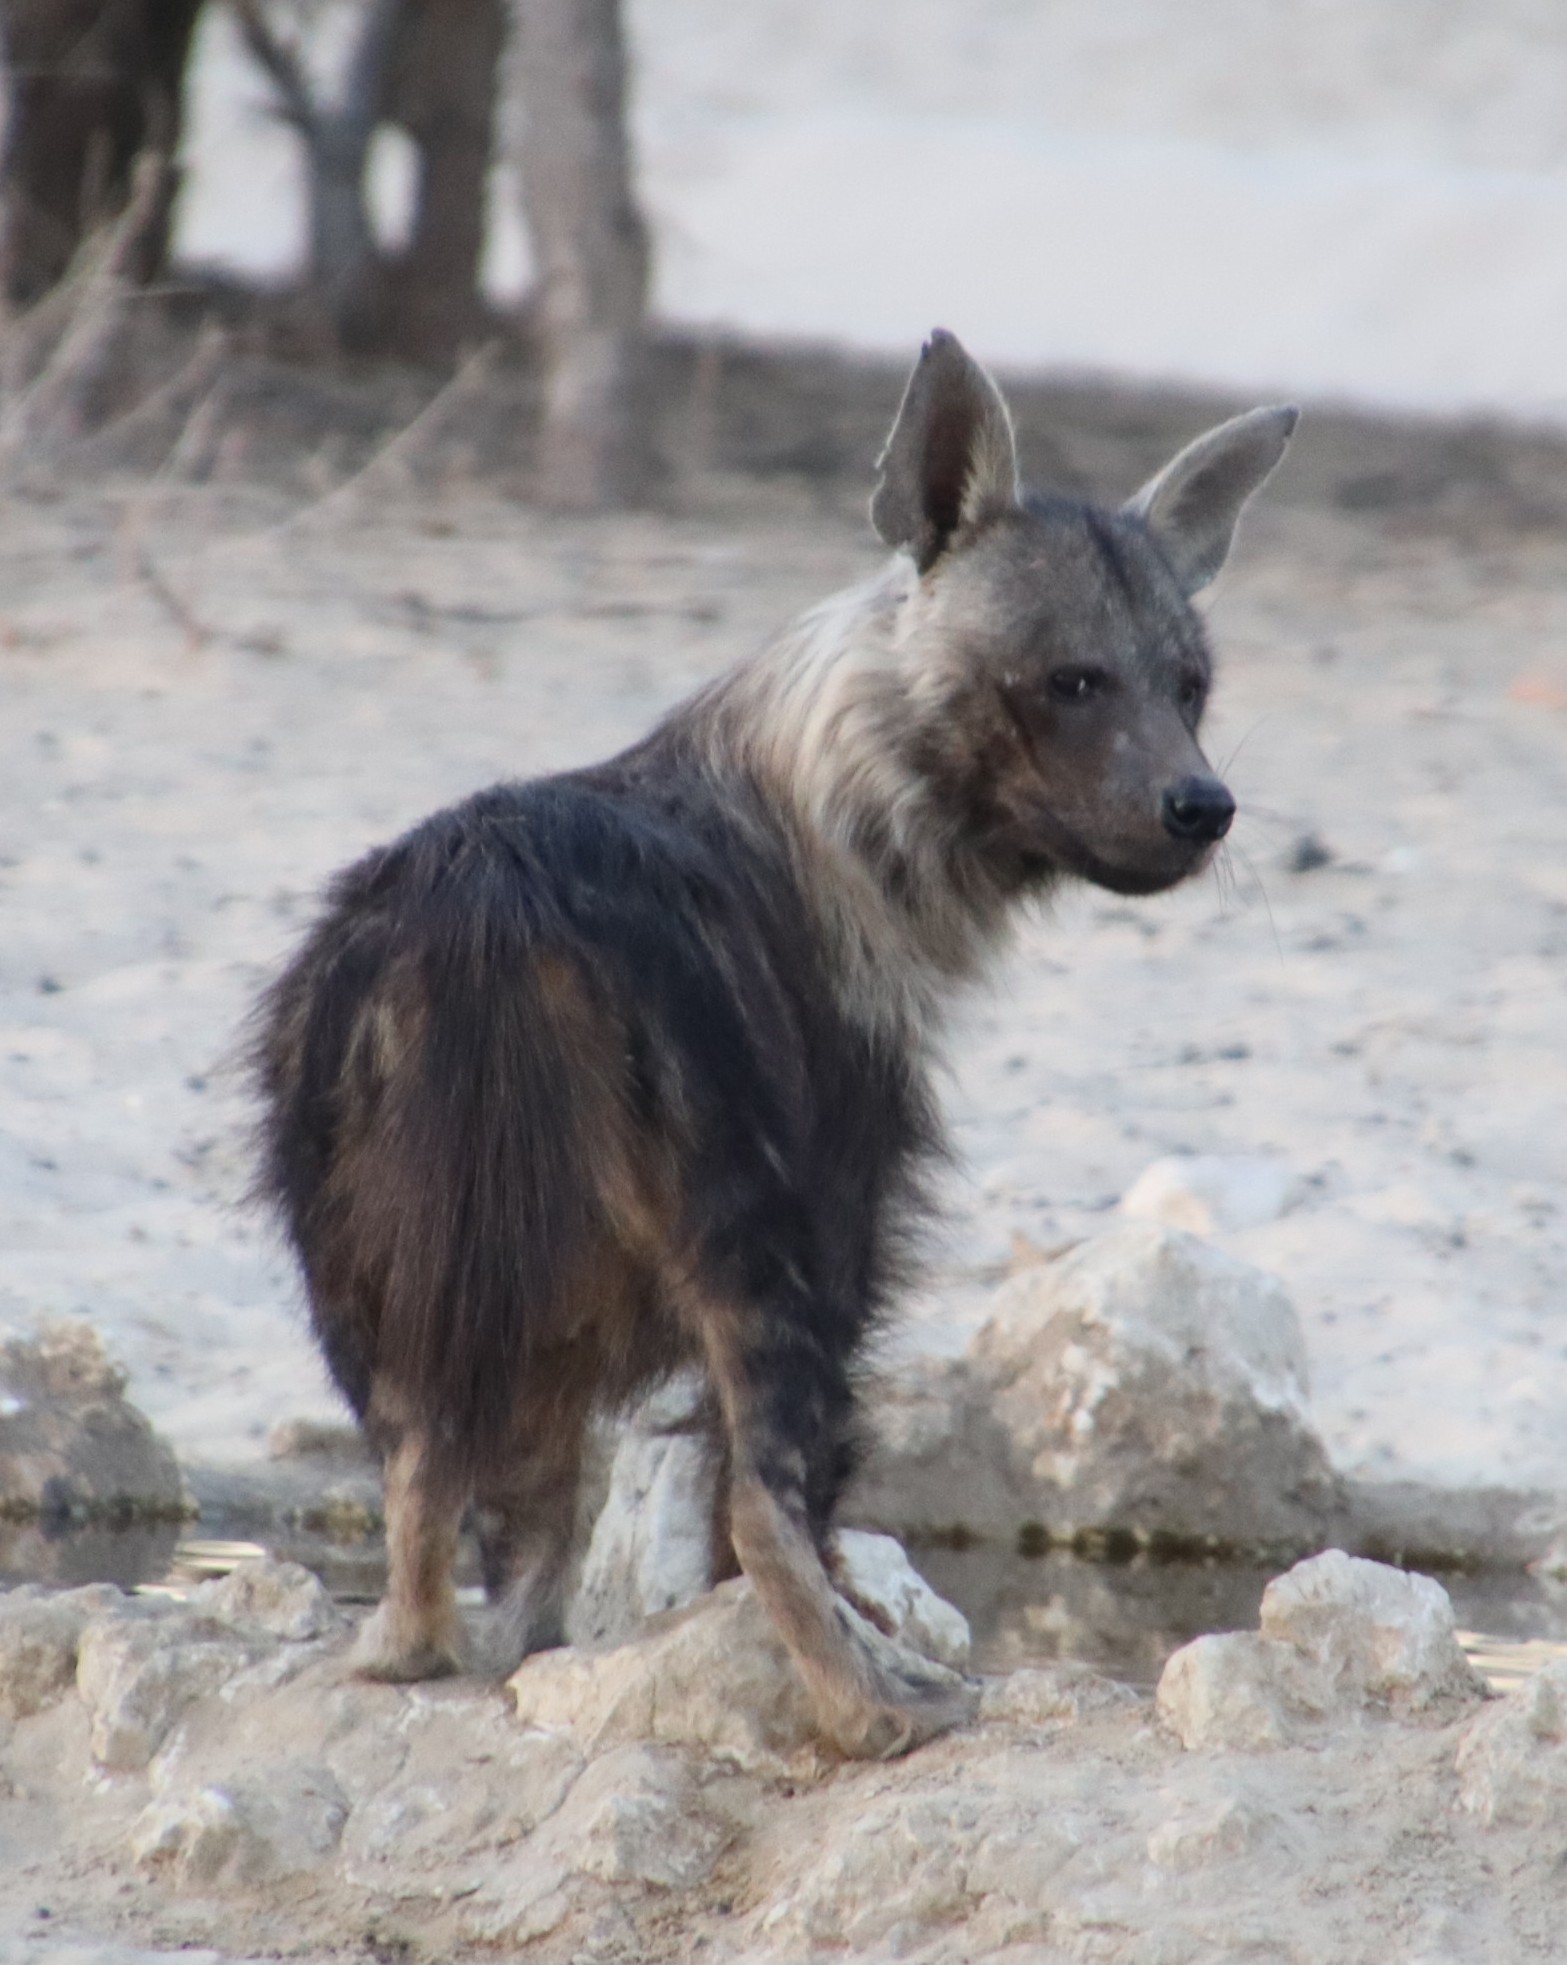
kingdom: Animalia
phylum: Chordata
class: Mammalia
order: Carnivora
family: Hyaenidae
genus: Hyaena
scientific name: Hyaena brunnea
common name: Brown hyena
